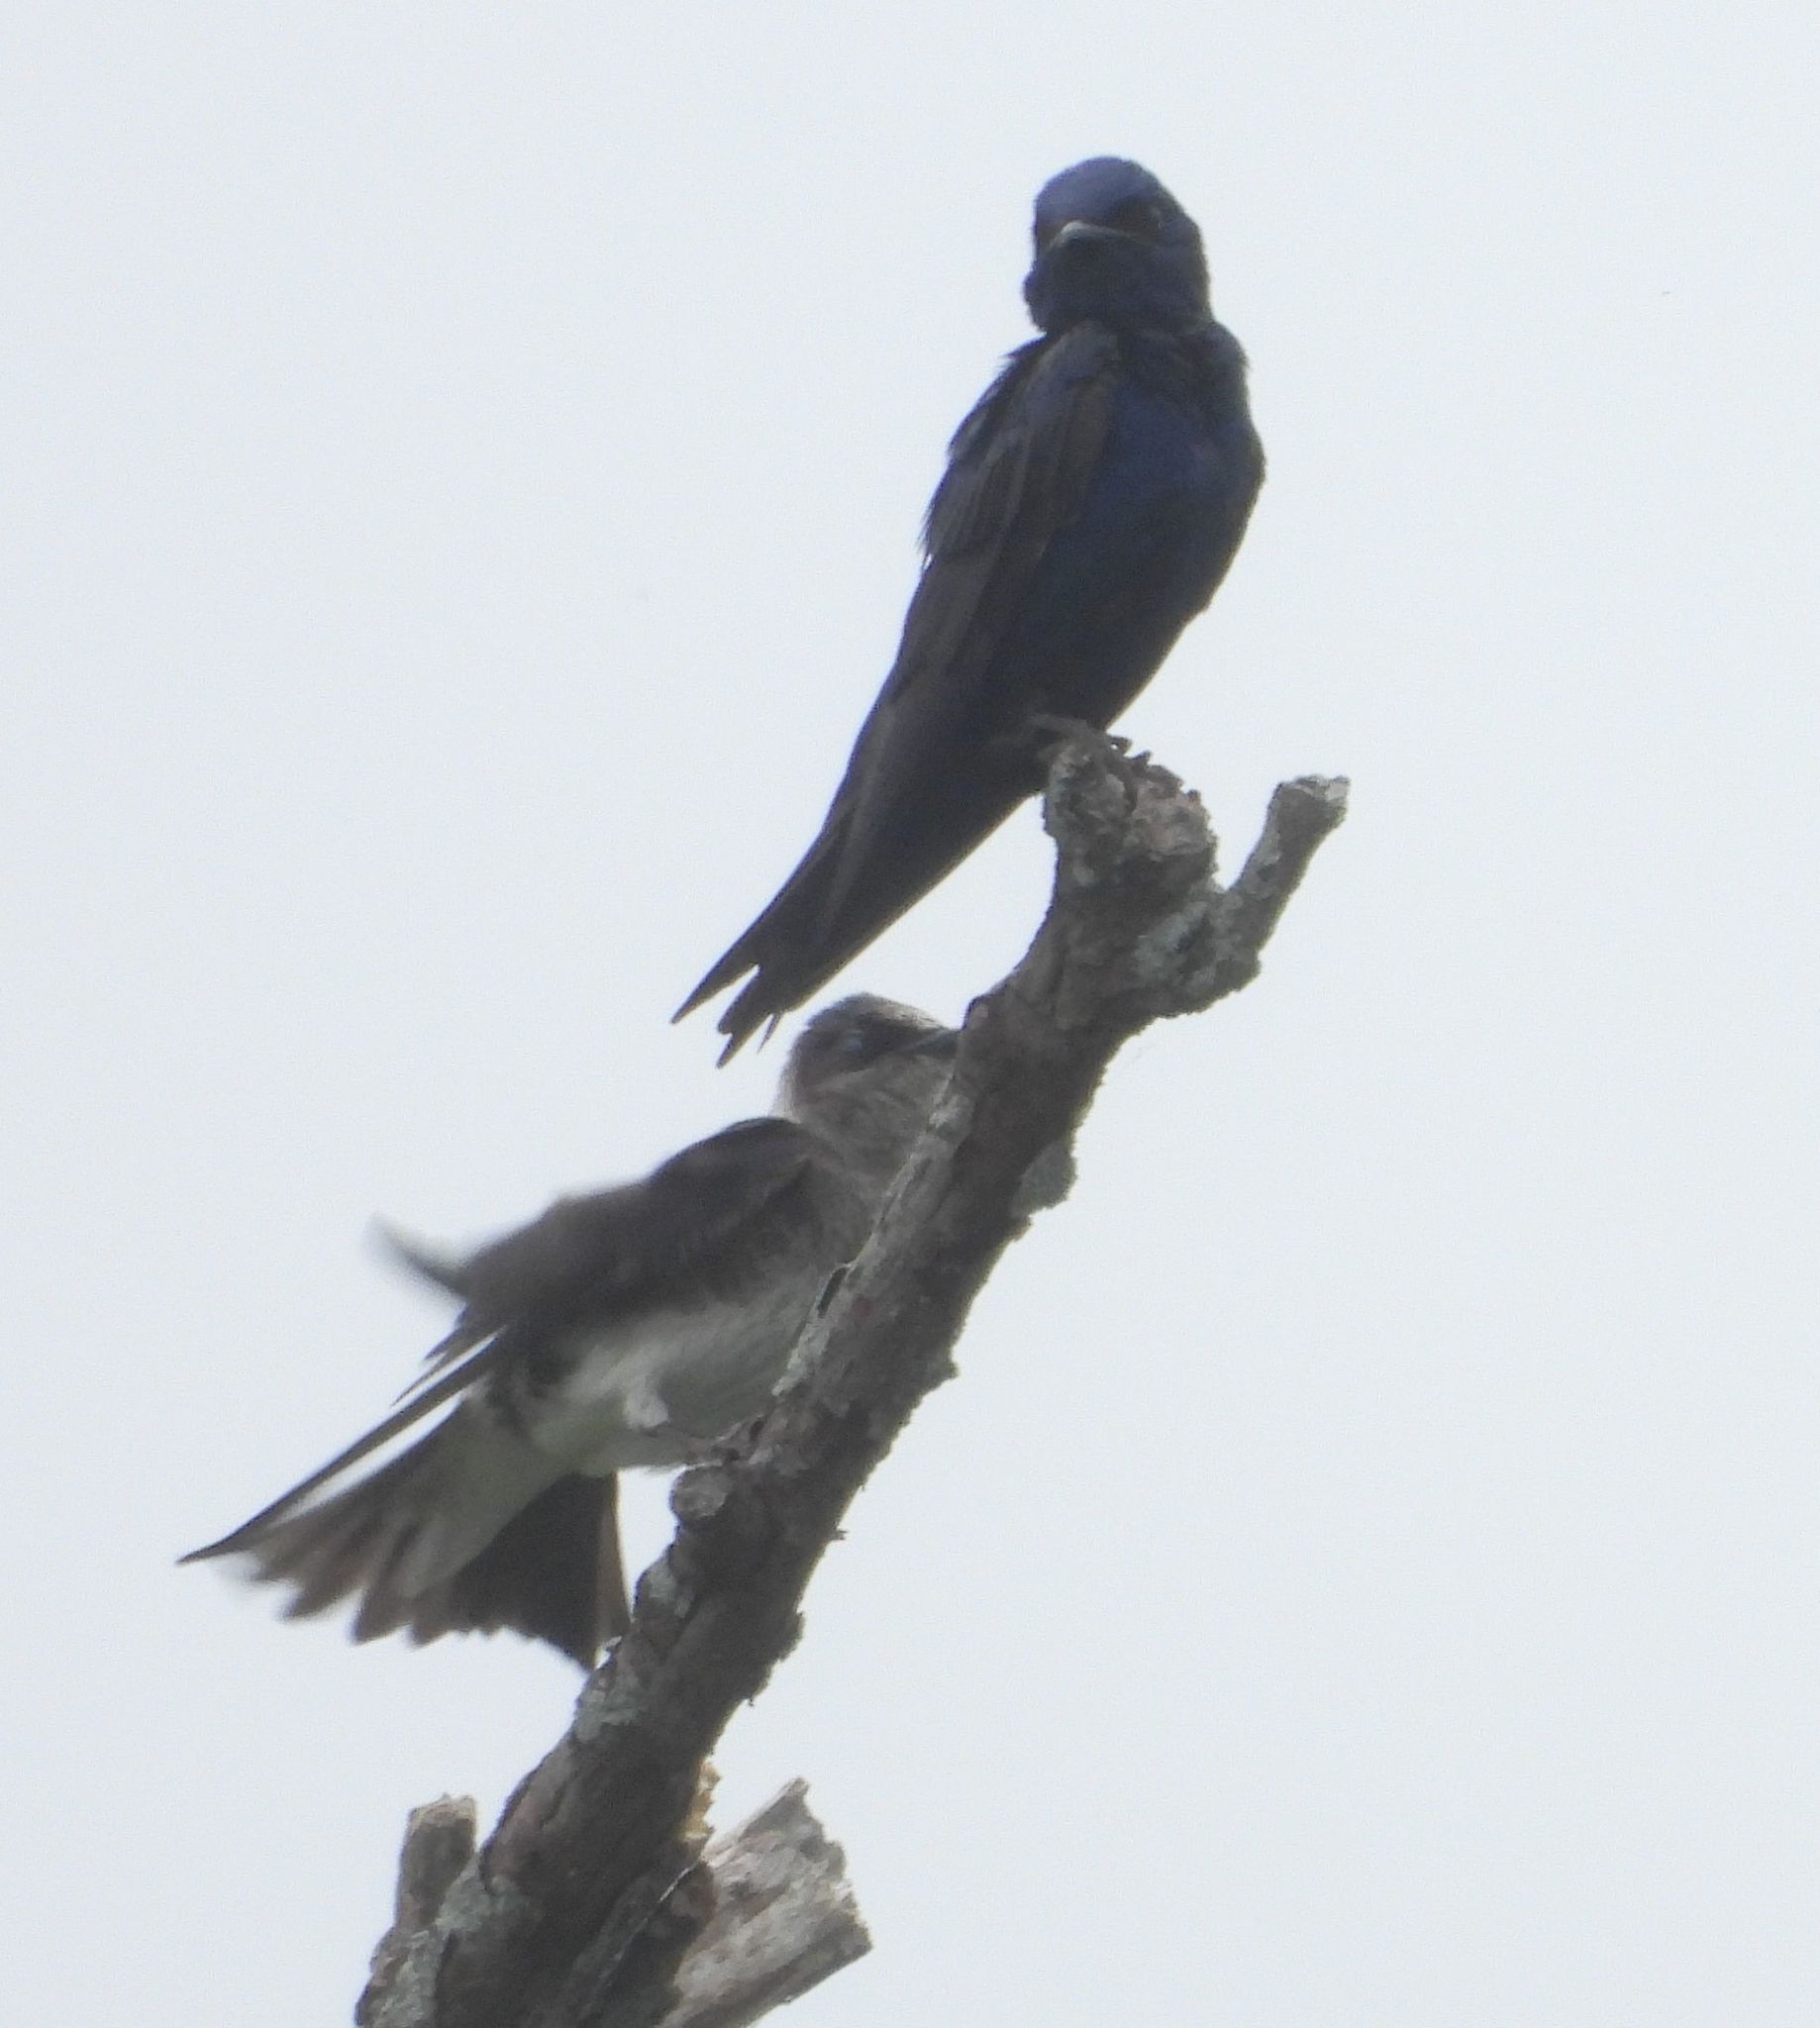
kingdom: Animalia
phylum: Chordata
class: Aves
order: Passeriformes
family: Hirundinidae
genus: Progne
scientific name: Progne subis
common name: Purple martin
